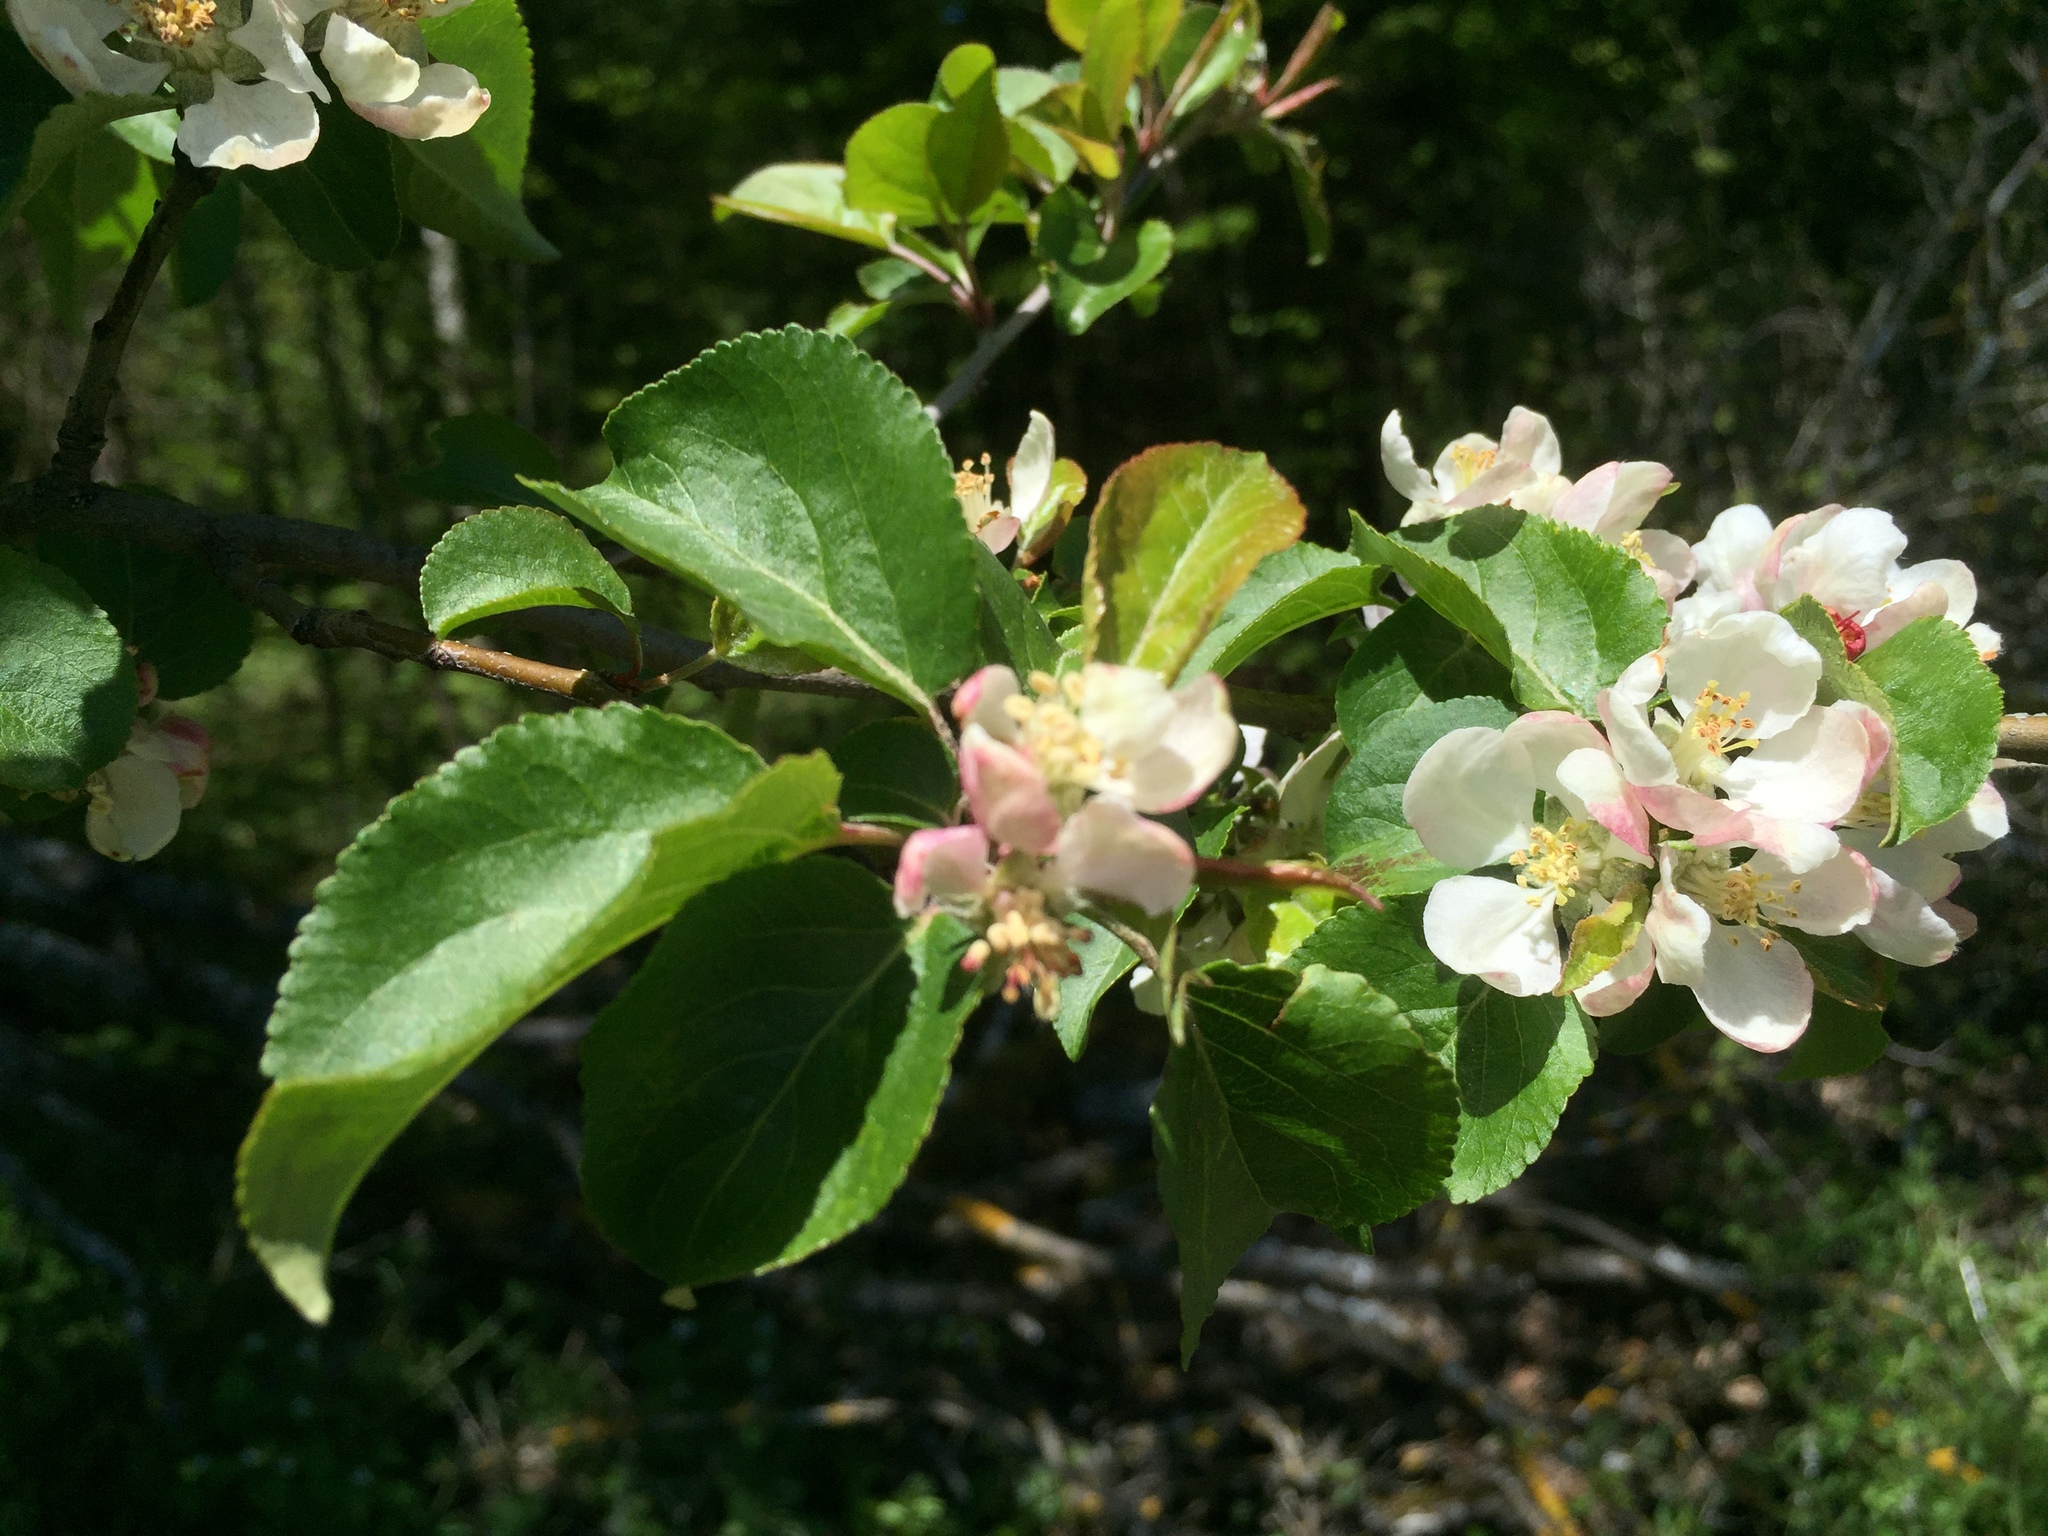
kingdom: Plantae
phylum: Tracheophyta
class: Magnoliopsida
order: Rosales
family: Rosaceae
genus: Malus
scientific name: Malus domestica
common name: Apple
